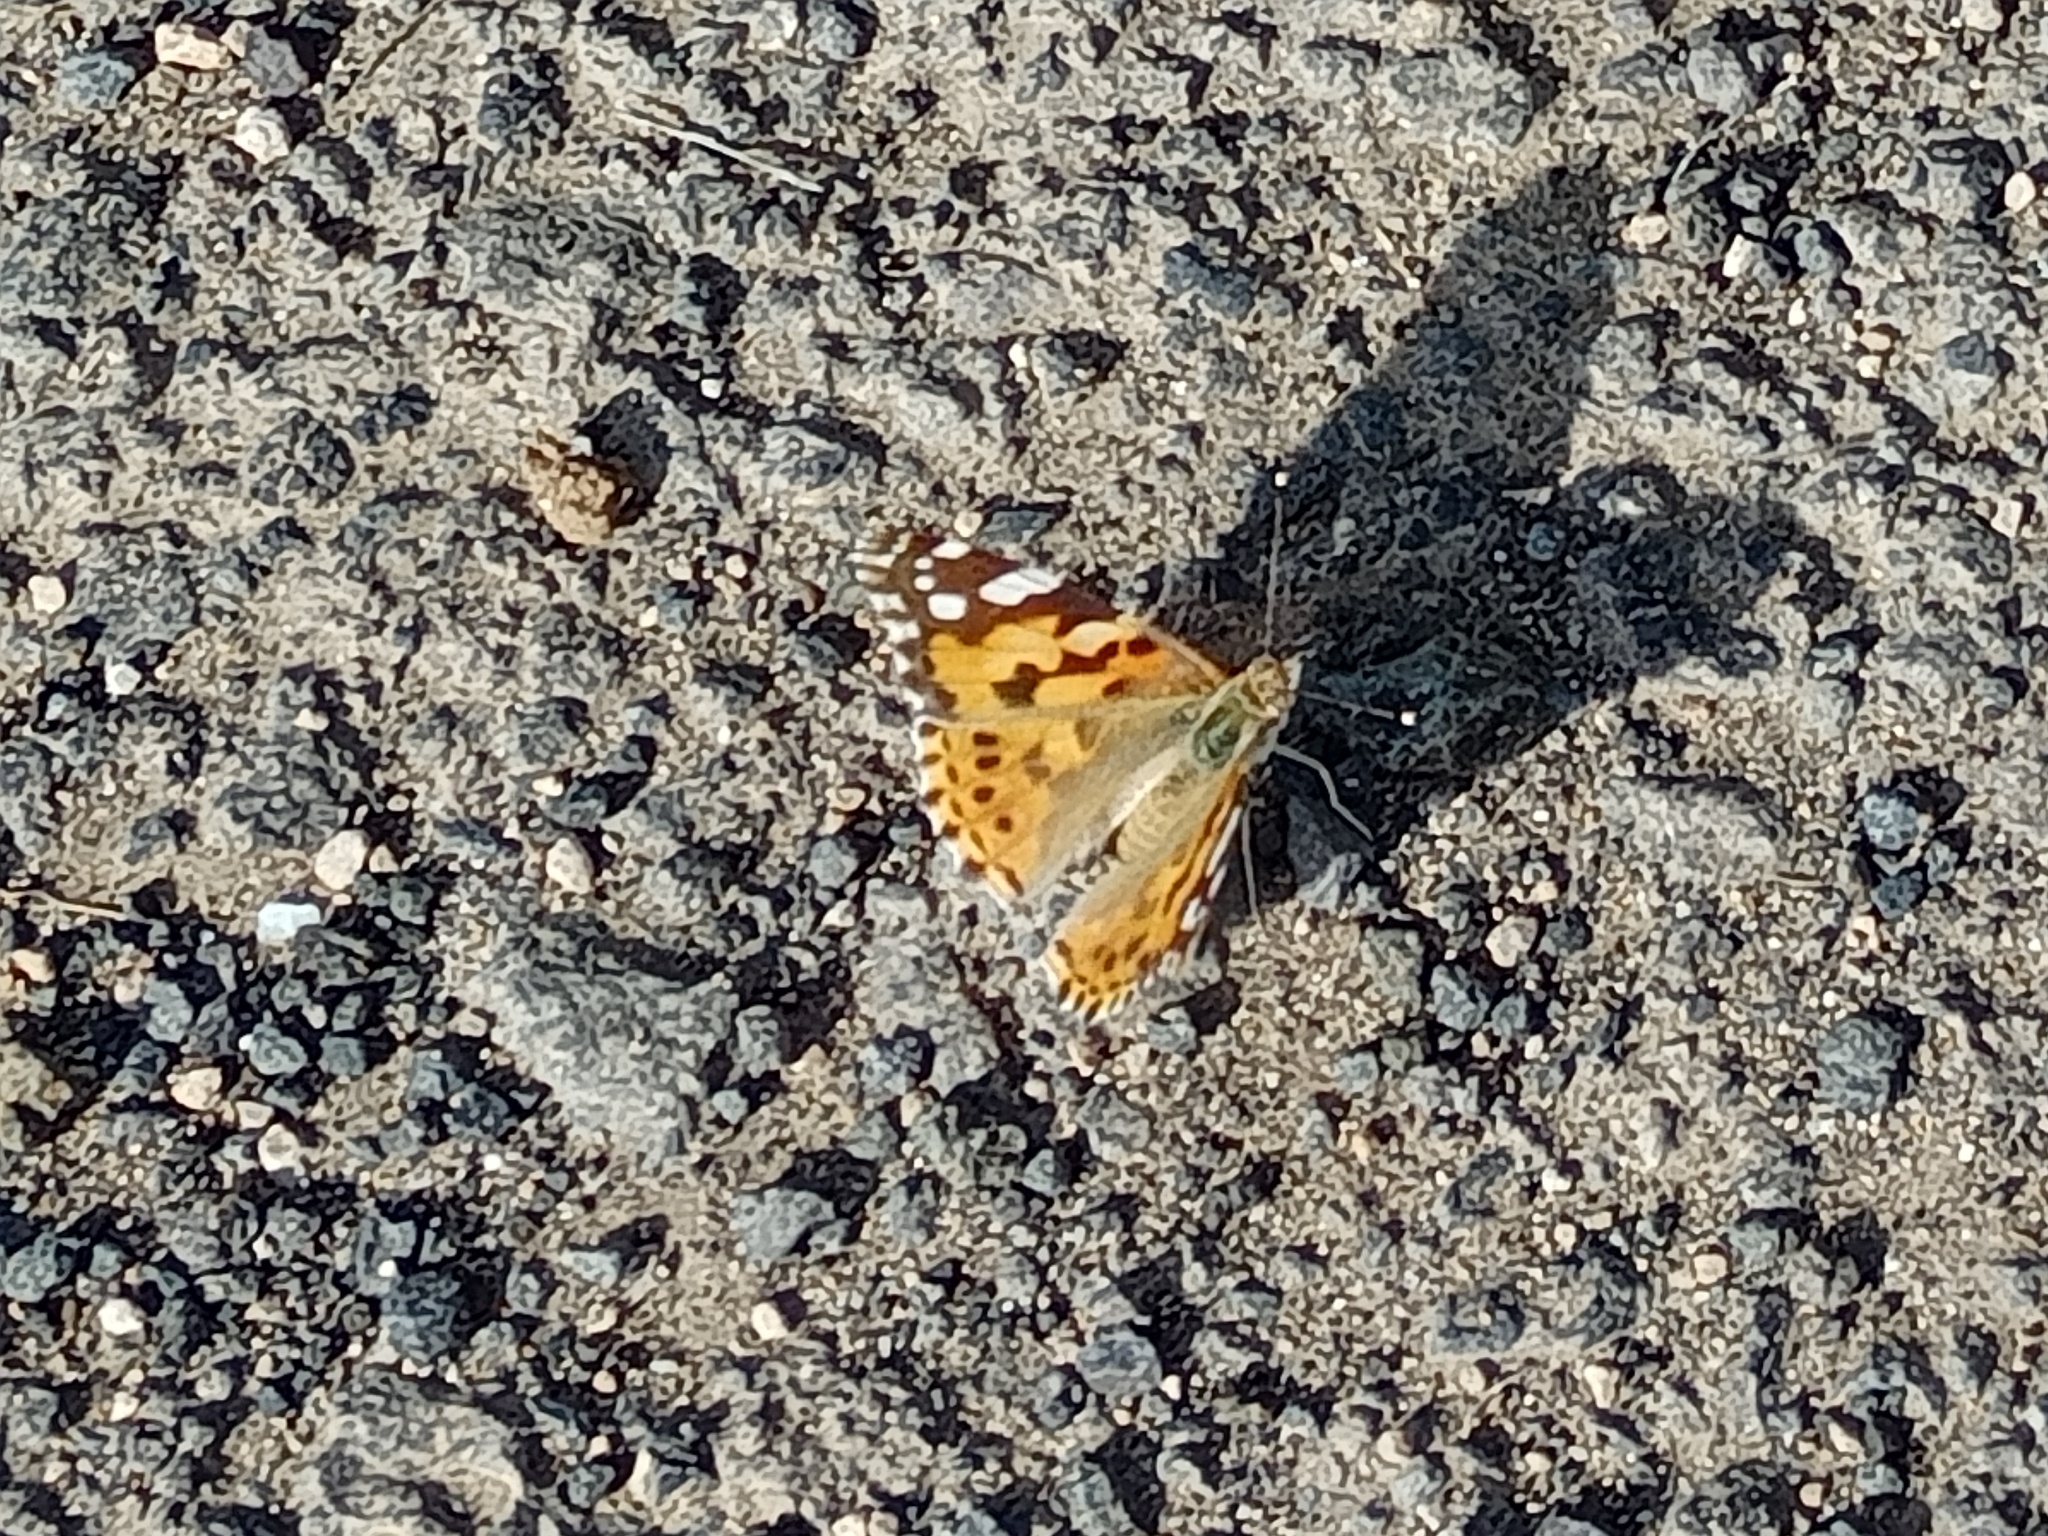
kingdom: Animalia
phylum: Arthropoda
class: Insecta
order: Lepidoptera
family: Nymphalidae
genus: Vanessa
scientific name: Vanessa cardui
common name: Painted lady
